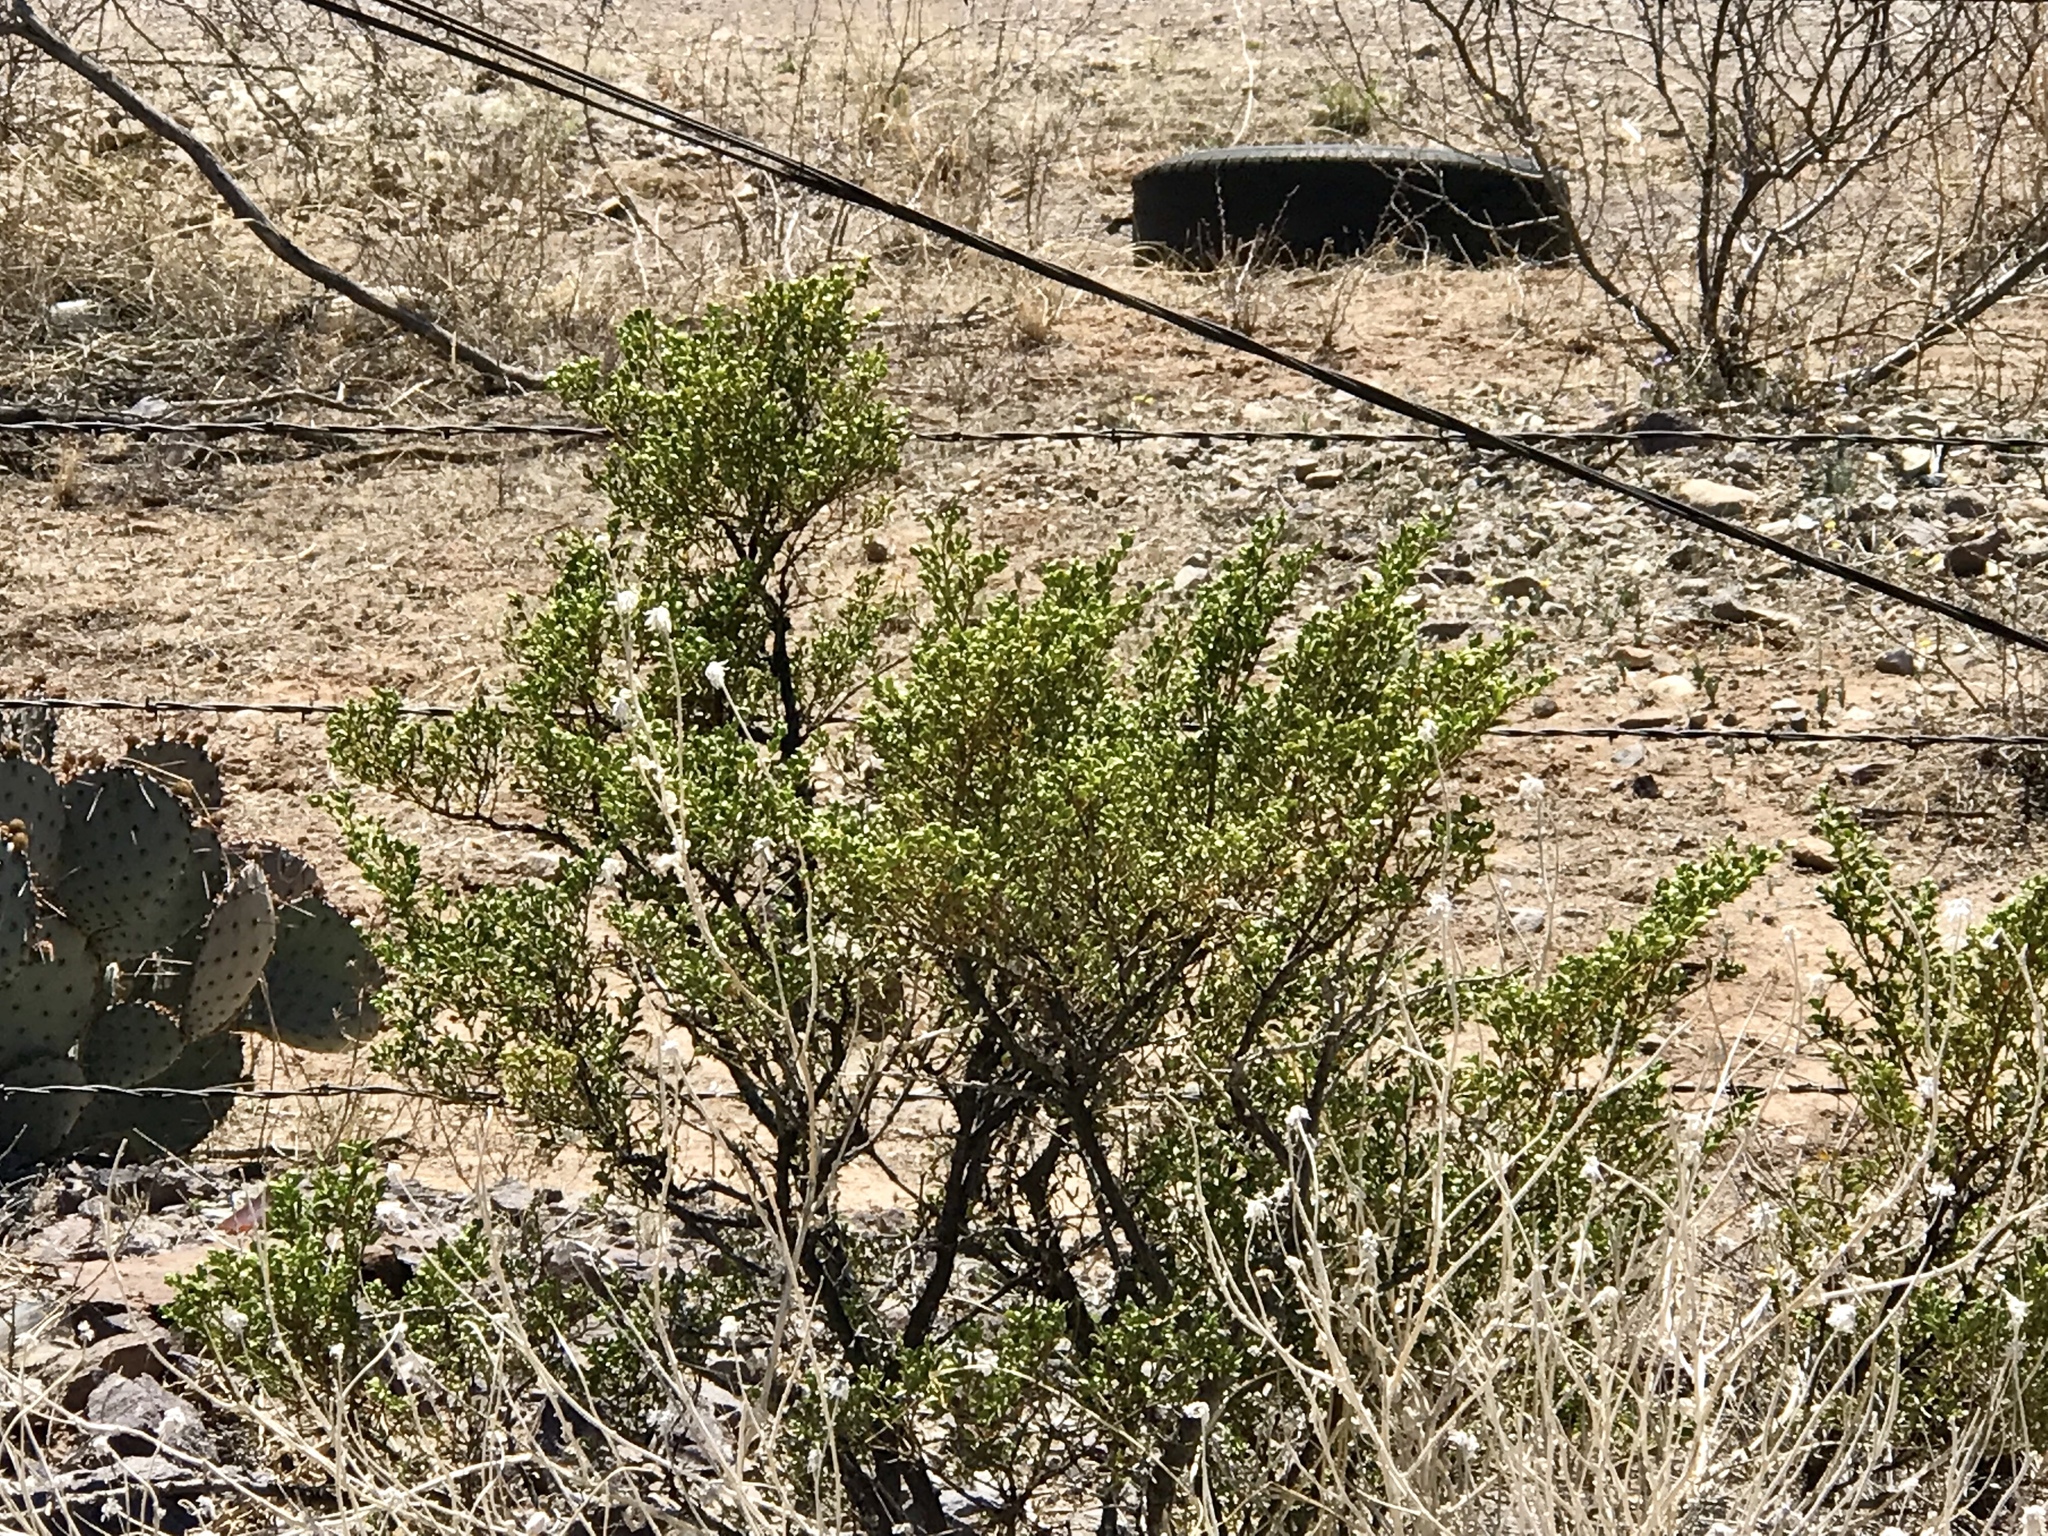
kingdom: Plantae
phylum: Tracheophyta
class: Magnoliopsida
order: Zygophyllales
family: Zygophyllaceae
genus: Larrea
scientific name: Larrea tridentata
